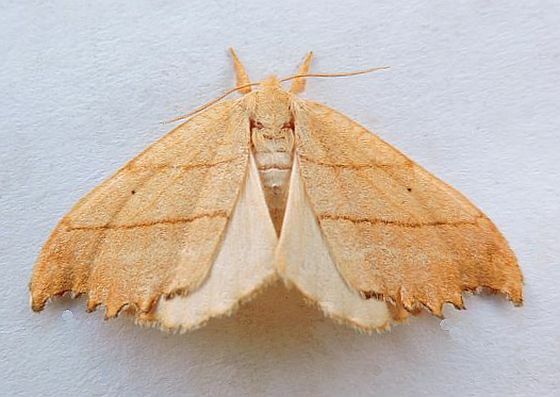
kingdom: Animalia
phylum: Arthropoda
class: Insecta
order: Lepidoptera
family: Drepanidae
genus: Falcaria
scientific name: Falcaria bilineata
